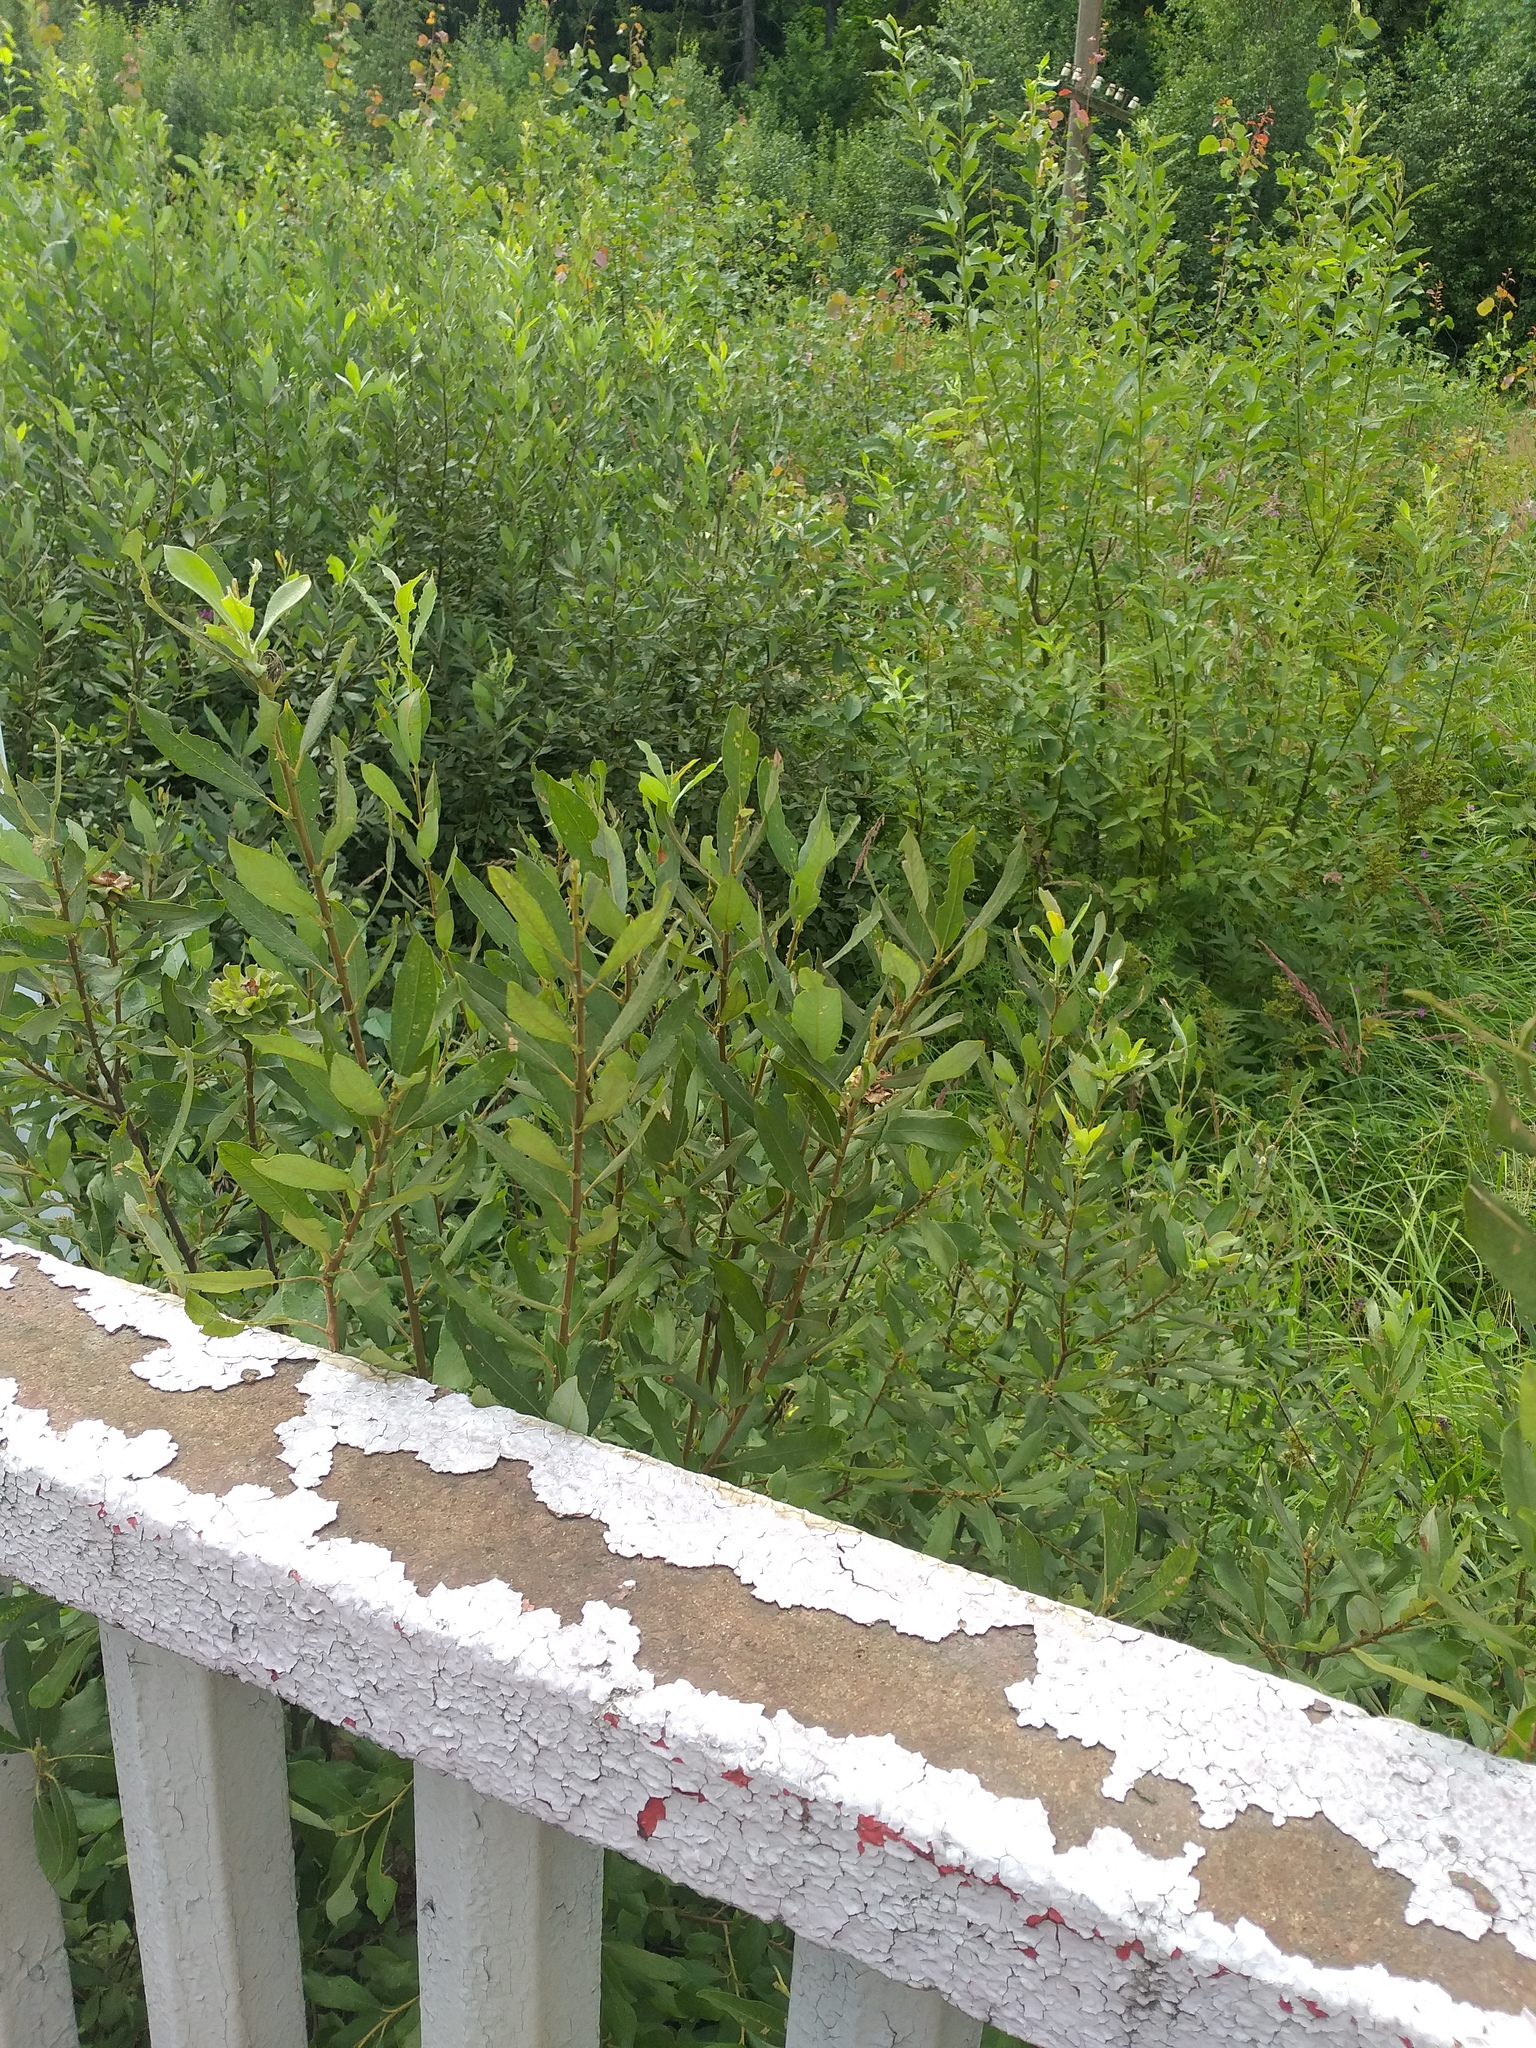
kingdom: Plantae
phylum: Tracheophyta
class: Magnoliopsida
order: Malpighiales
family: Salicaceae
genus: Salix
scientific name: Salix cinerea
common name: Common sallow
